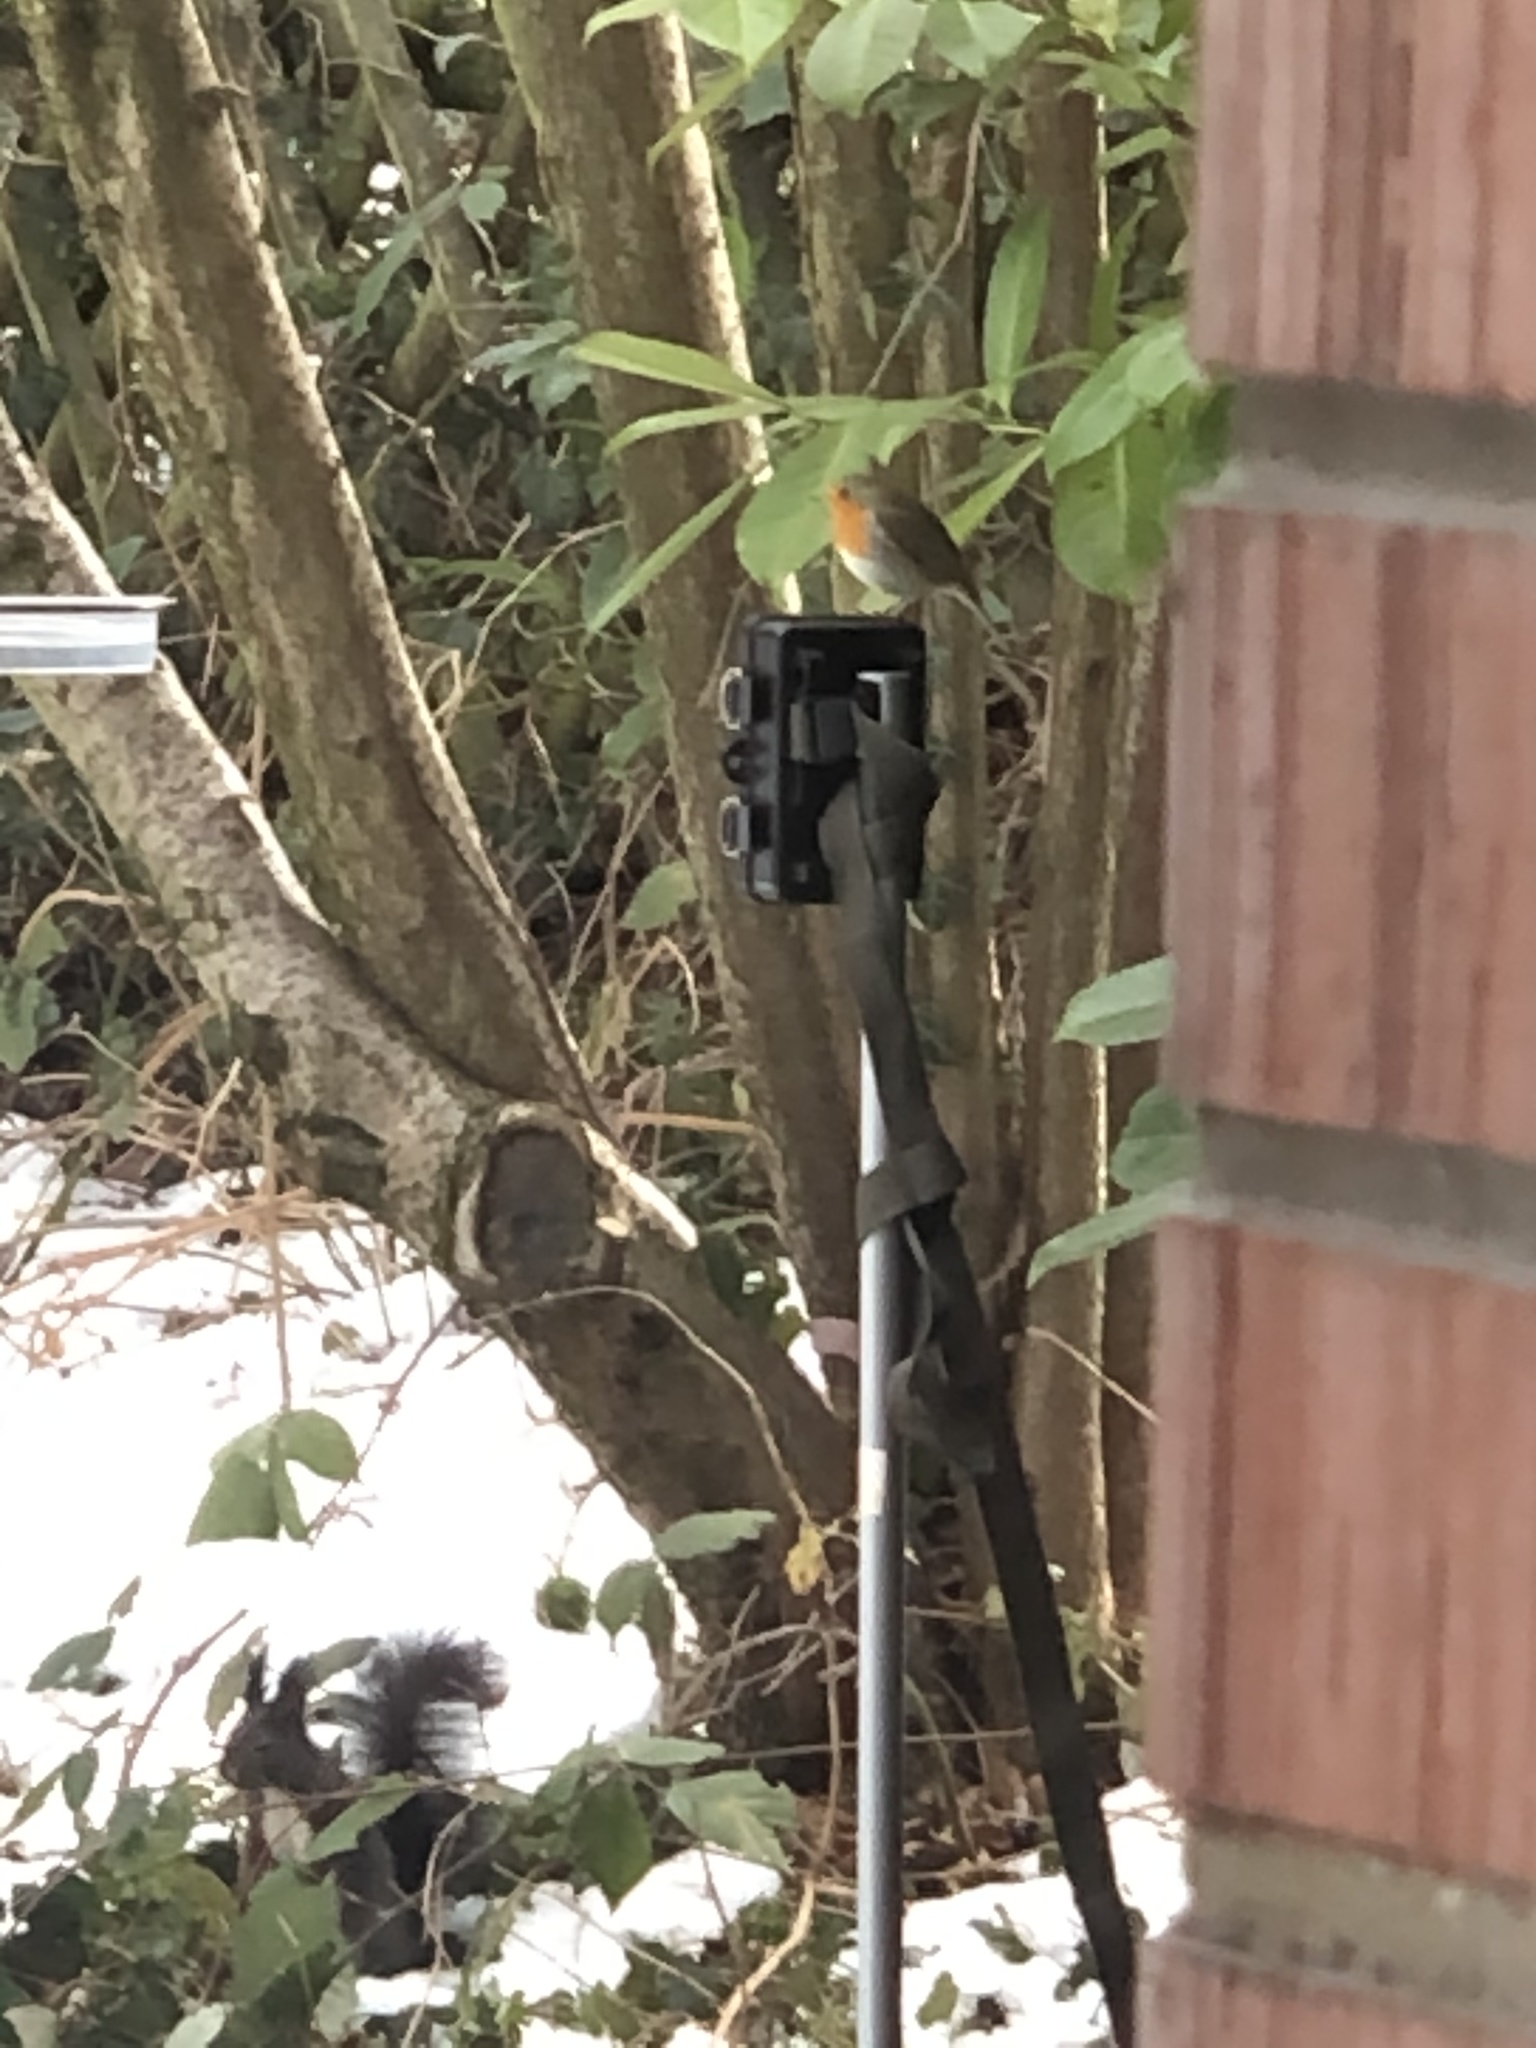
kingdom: Animalia
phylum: Chordata
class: Mammalia
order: Rodentia
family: Sciuridae
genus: Sciurus
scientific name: Sciurus vulgaris
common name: Eurasian red squirrel
